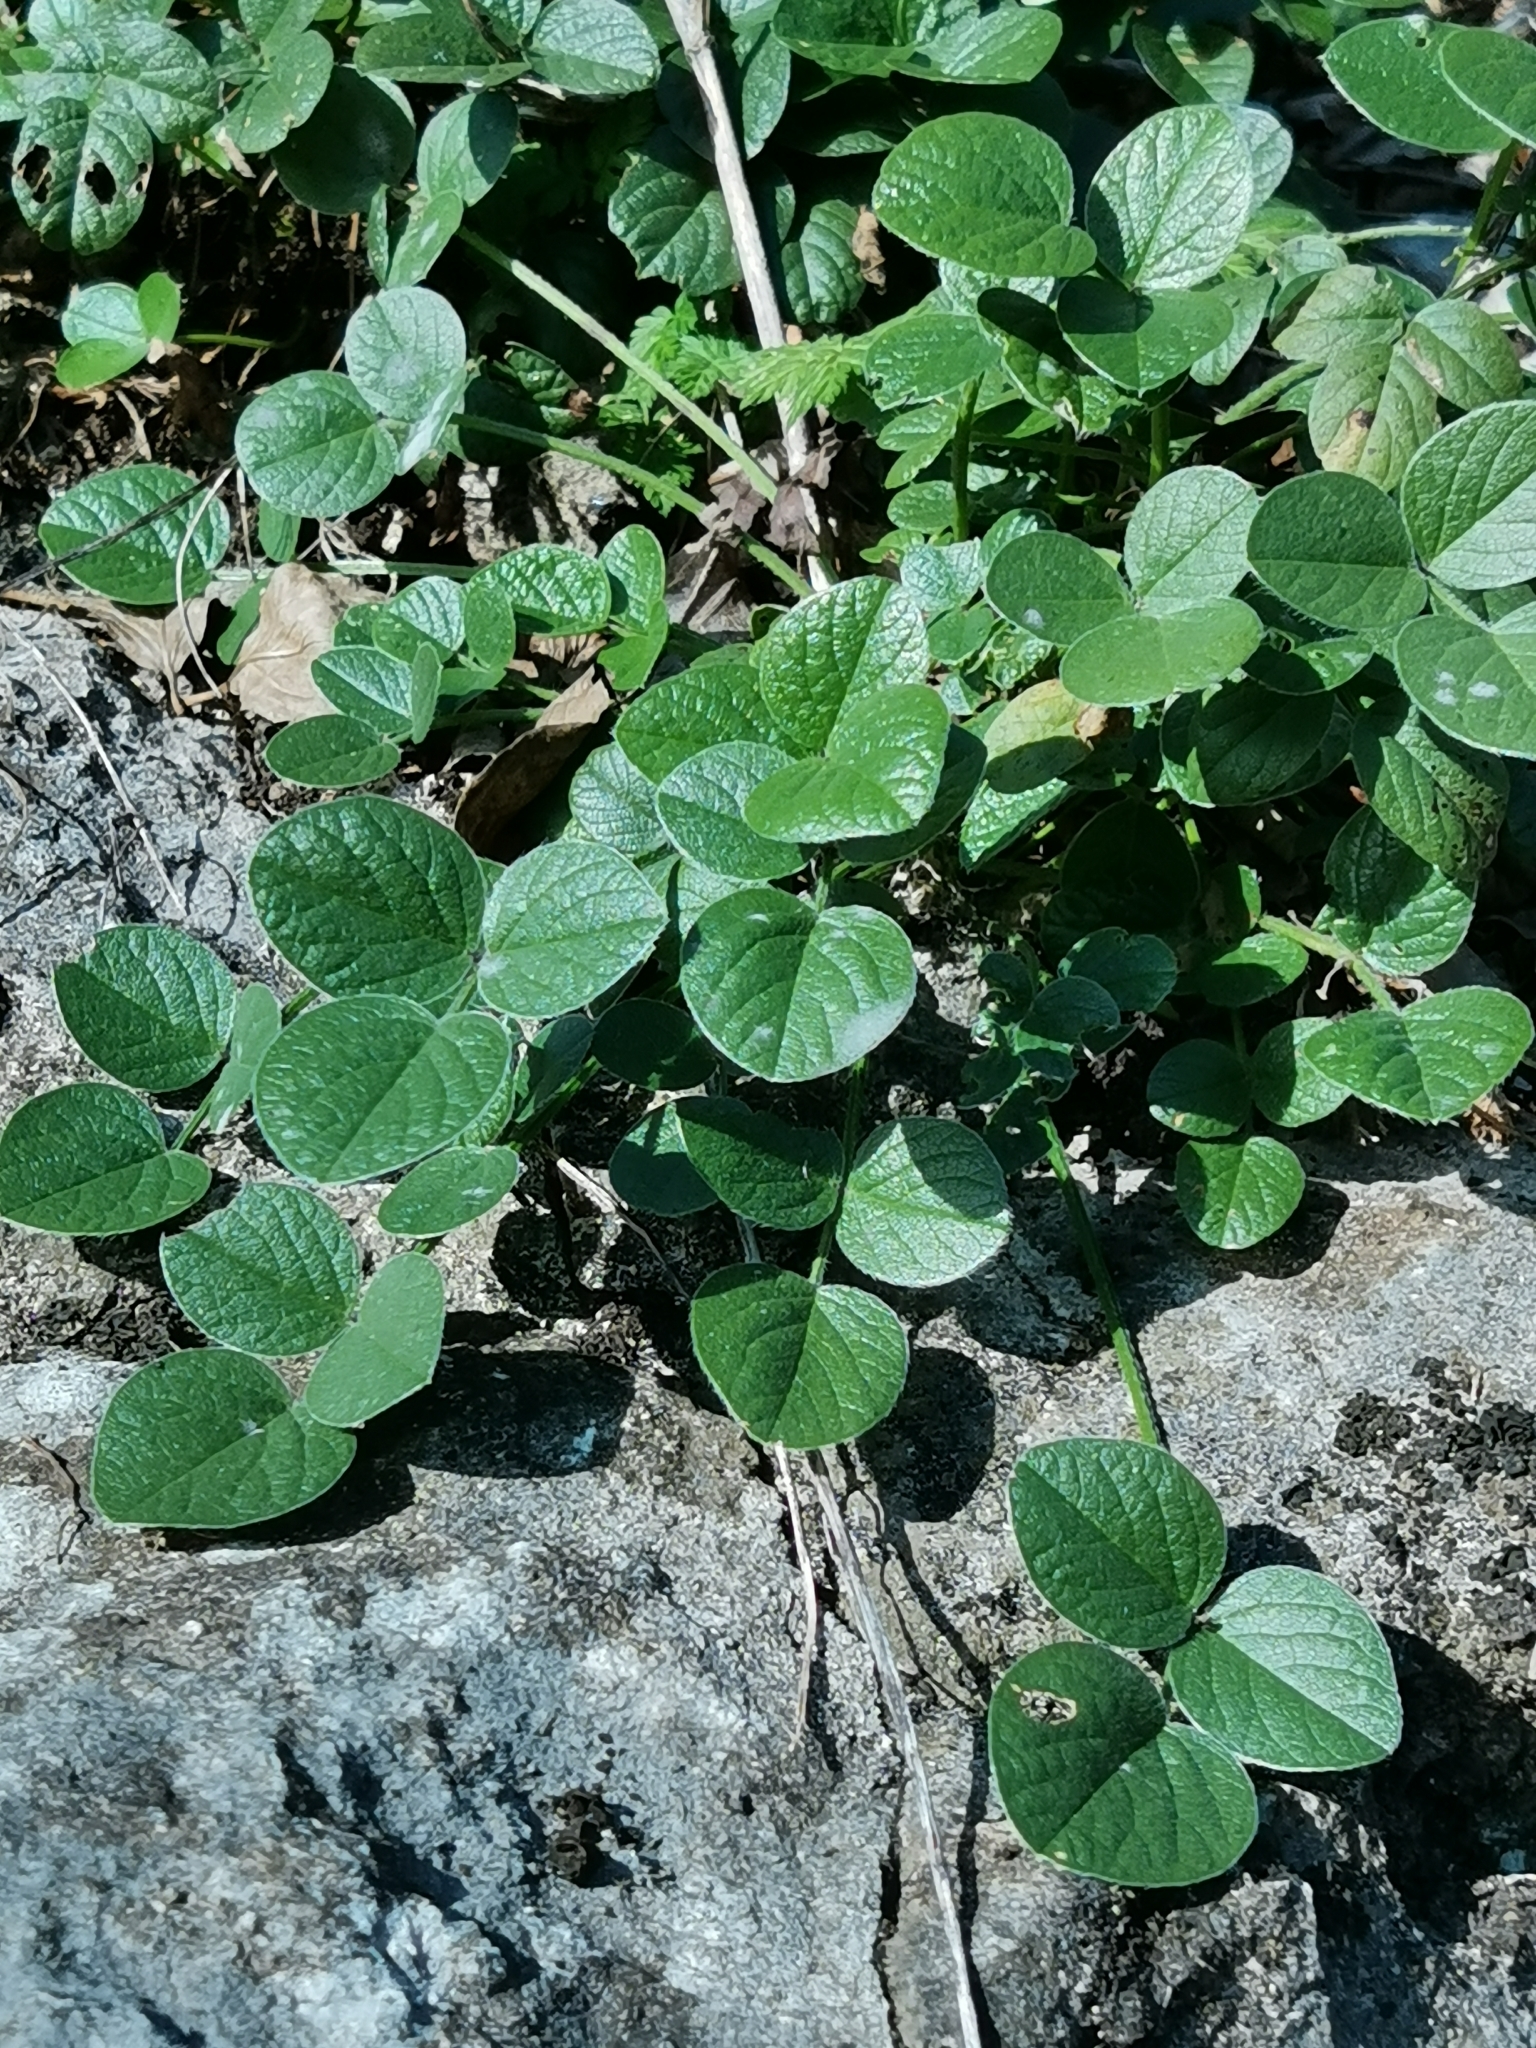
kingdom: Plantae
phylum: Tracheophyta
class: Magnoliopsida
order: Fabales
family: Fabaceae
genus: Bituminaria
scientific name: Bituminaria bituminosa
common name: Arabian pea
